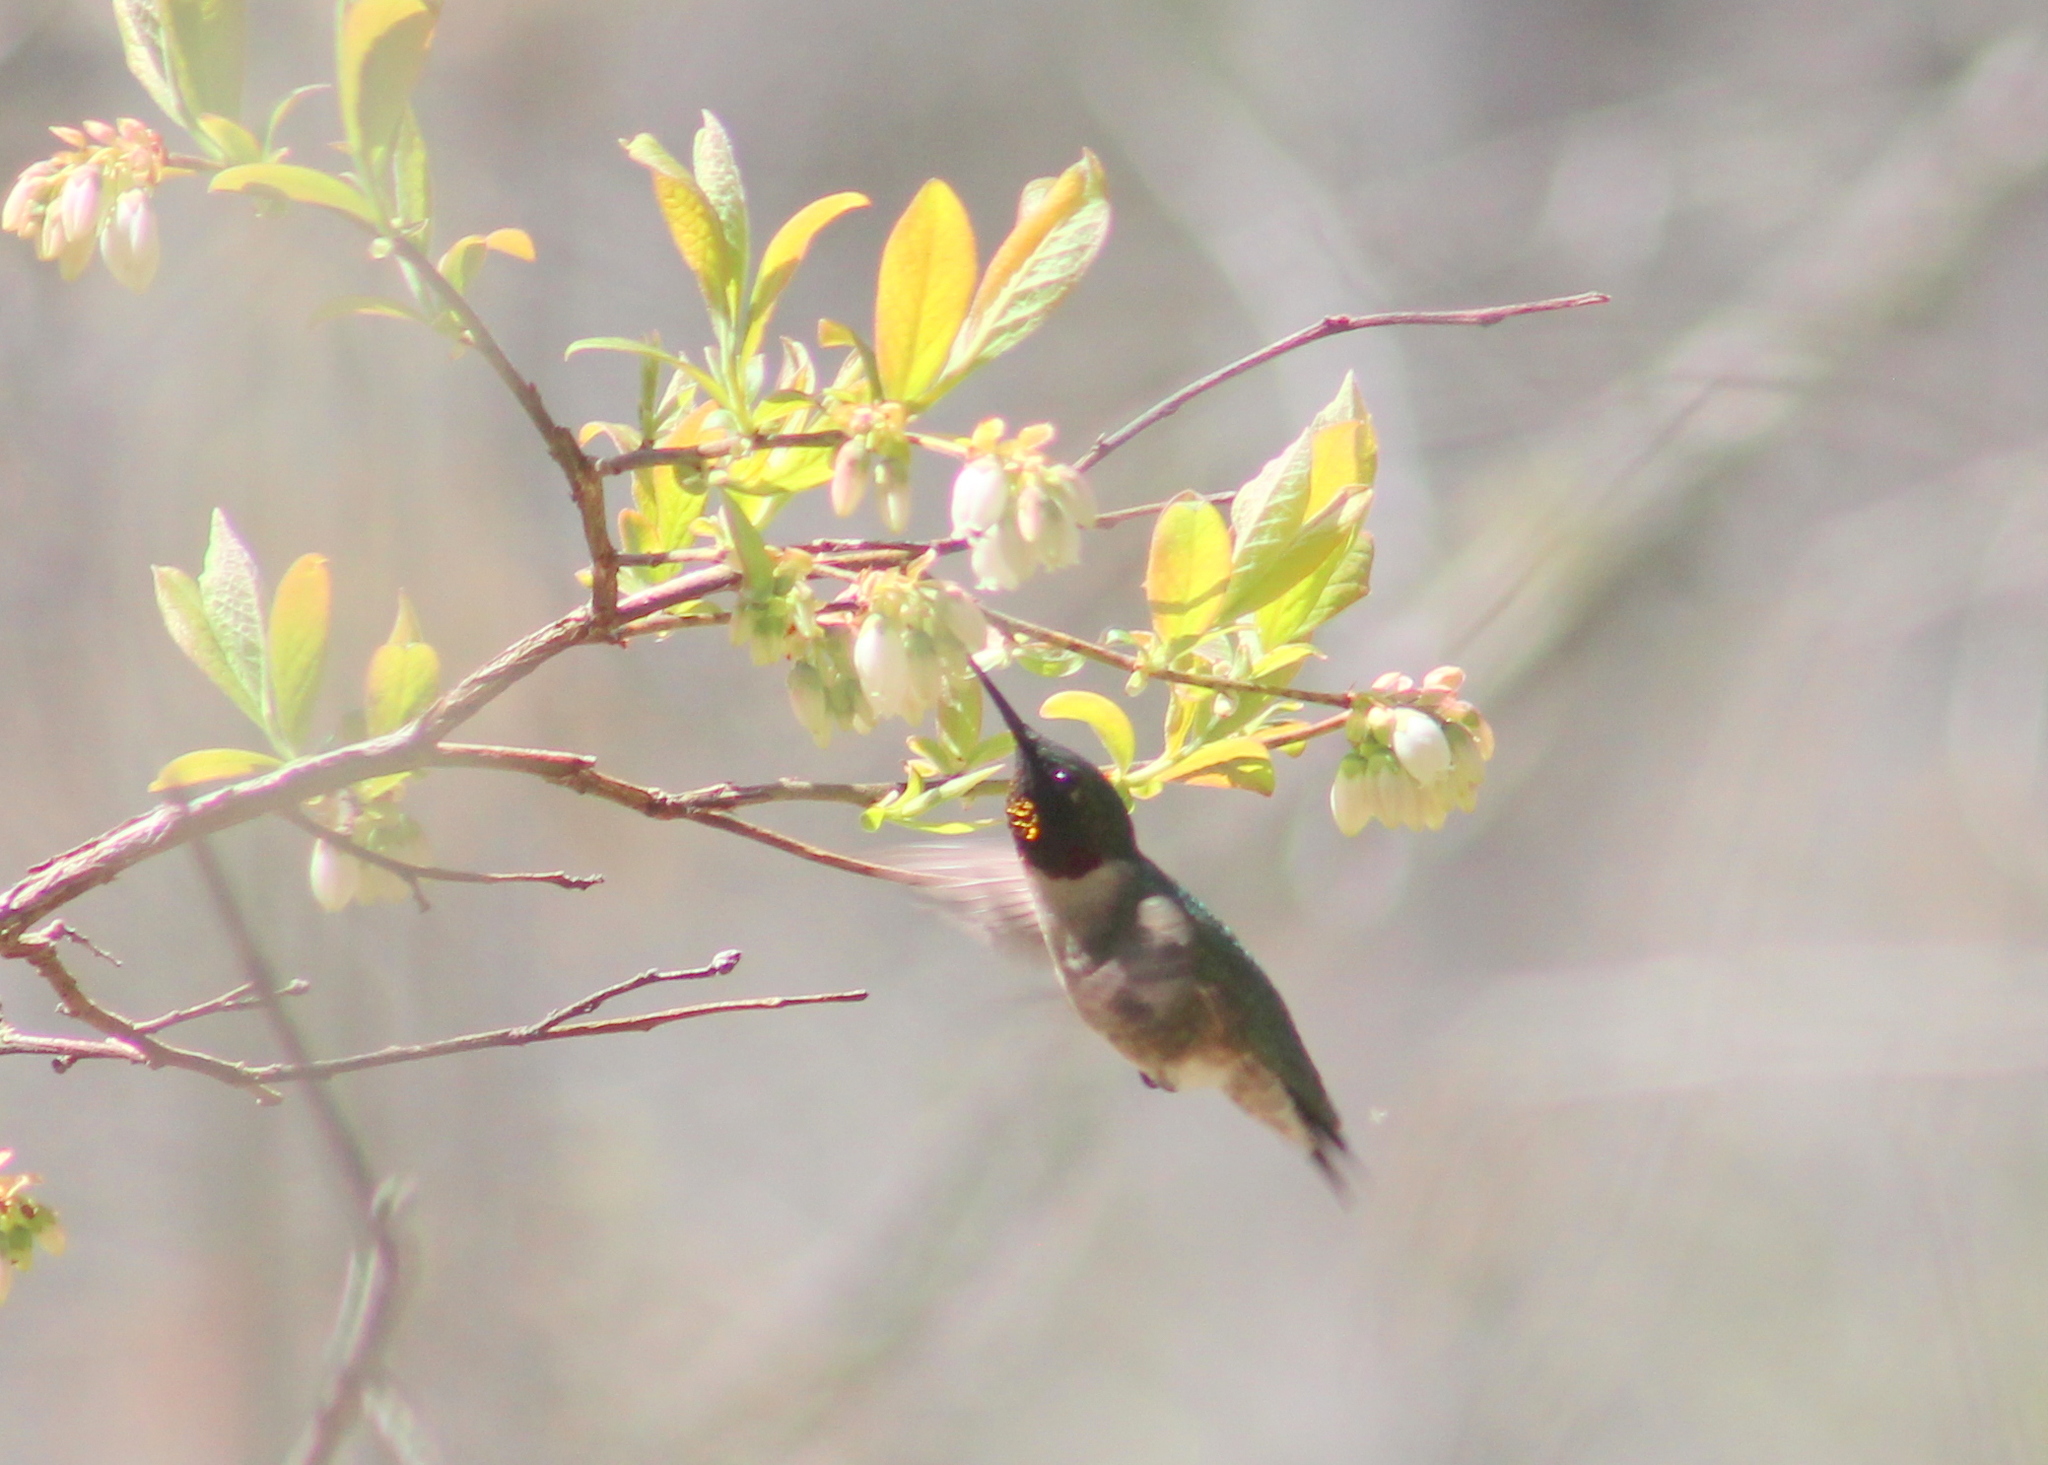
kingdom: Animalia
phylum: Chordata
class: Aves
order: Apodiformes
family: Trochilidae
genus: Archilochus
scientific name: Archilochus colubris
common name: Ruby-throated hummingbird
